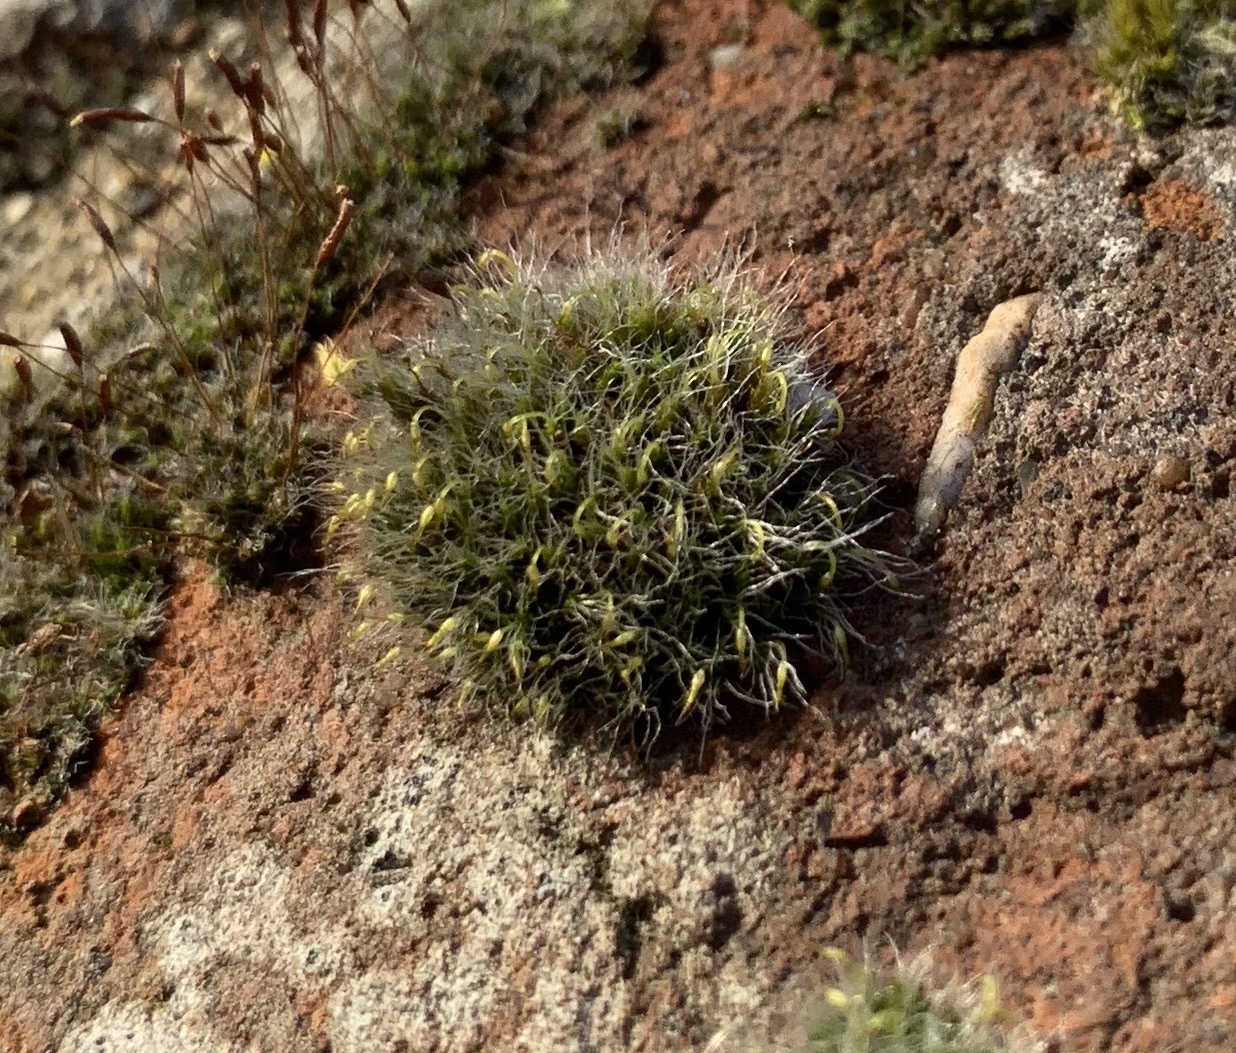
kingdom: Plantae
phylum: Bryophyta
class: Bryopsida
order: Grimmiales
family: Grimmiaceae
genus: Grimmia
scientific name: Grimmia pulvinata
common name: Grey-cushioned grimmia
